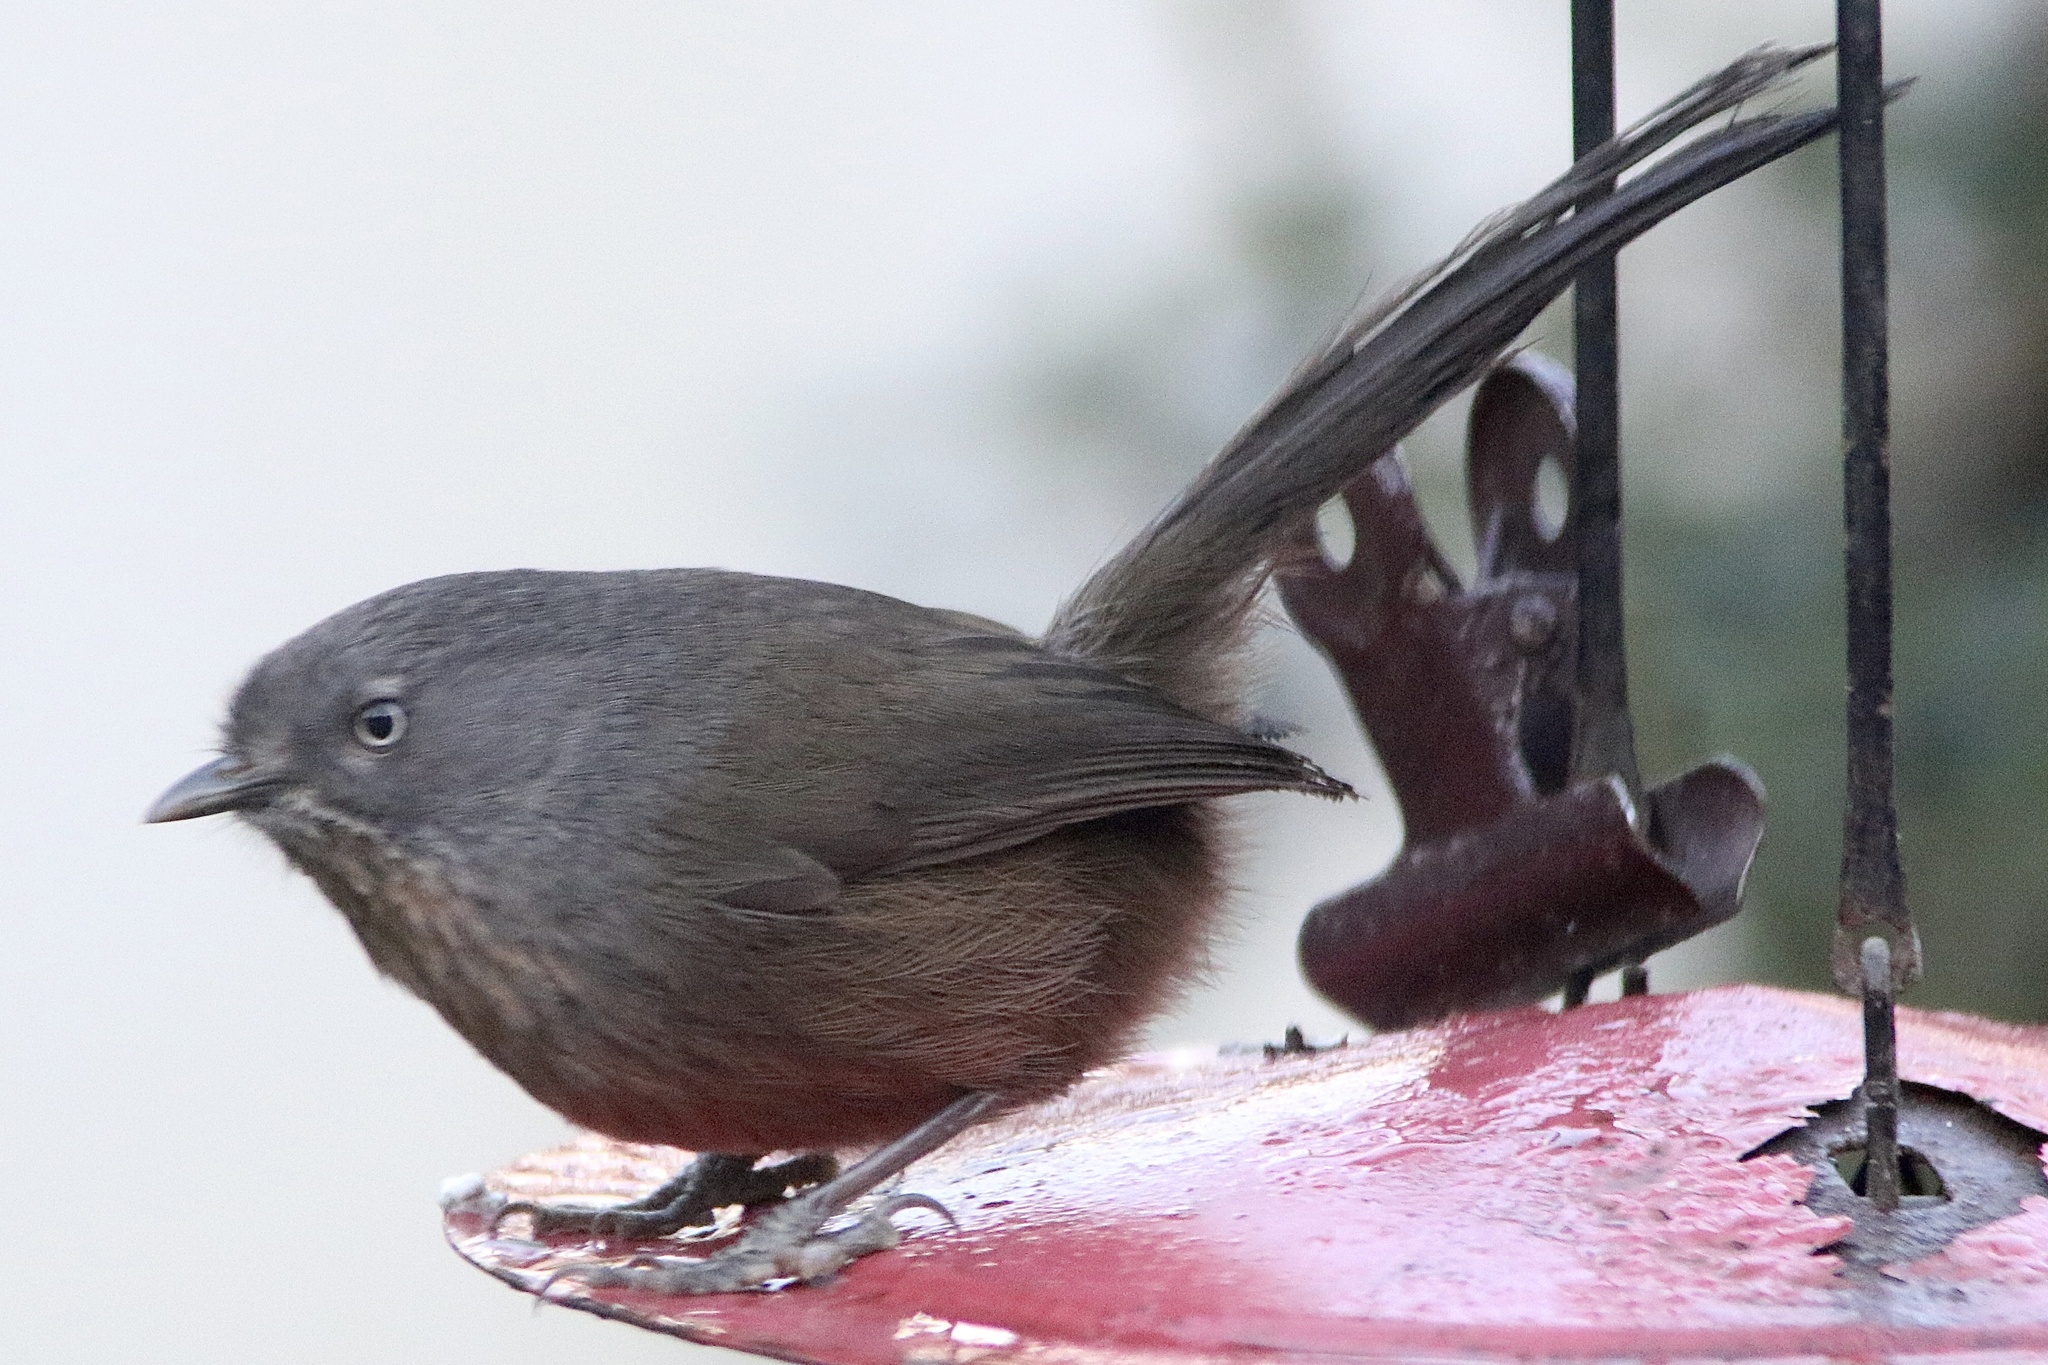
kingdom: Animalia
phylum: Chordata
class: Aves
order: Passeriformes
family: Sylviidae
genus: Chamaea
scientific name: Chamaea fasciata
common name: Wrentit
